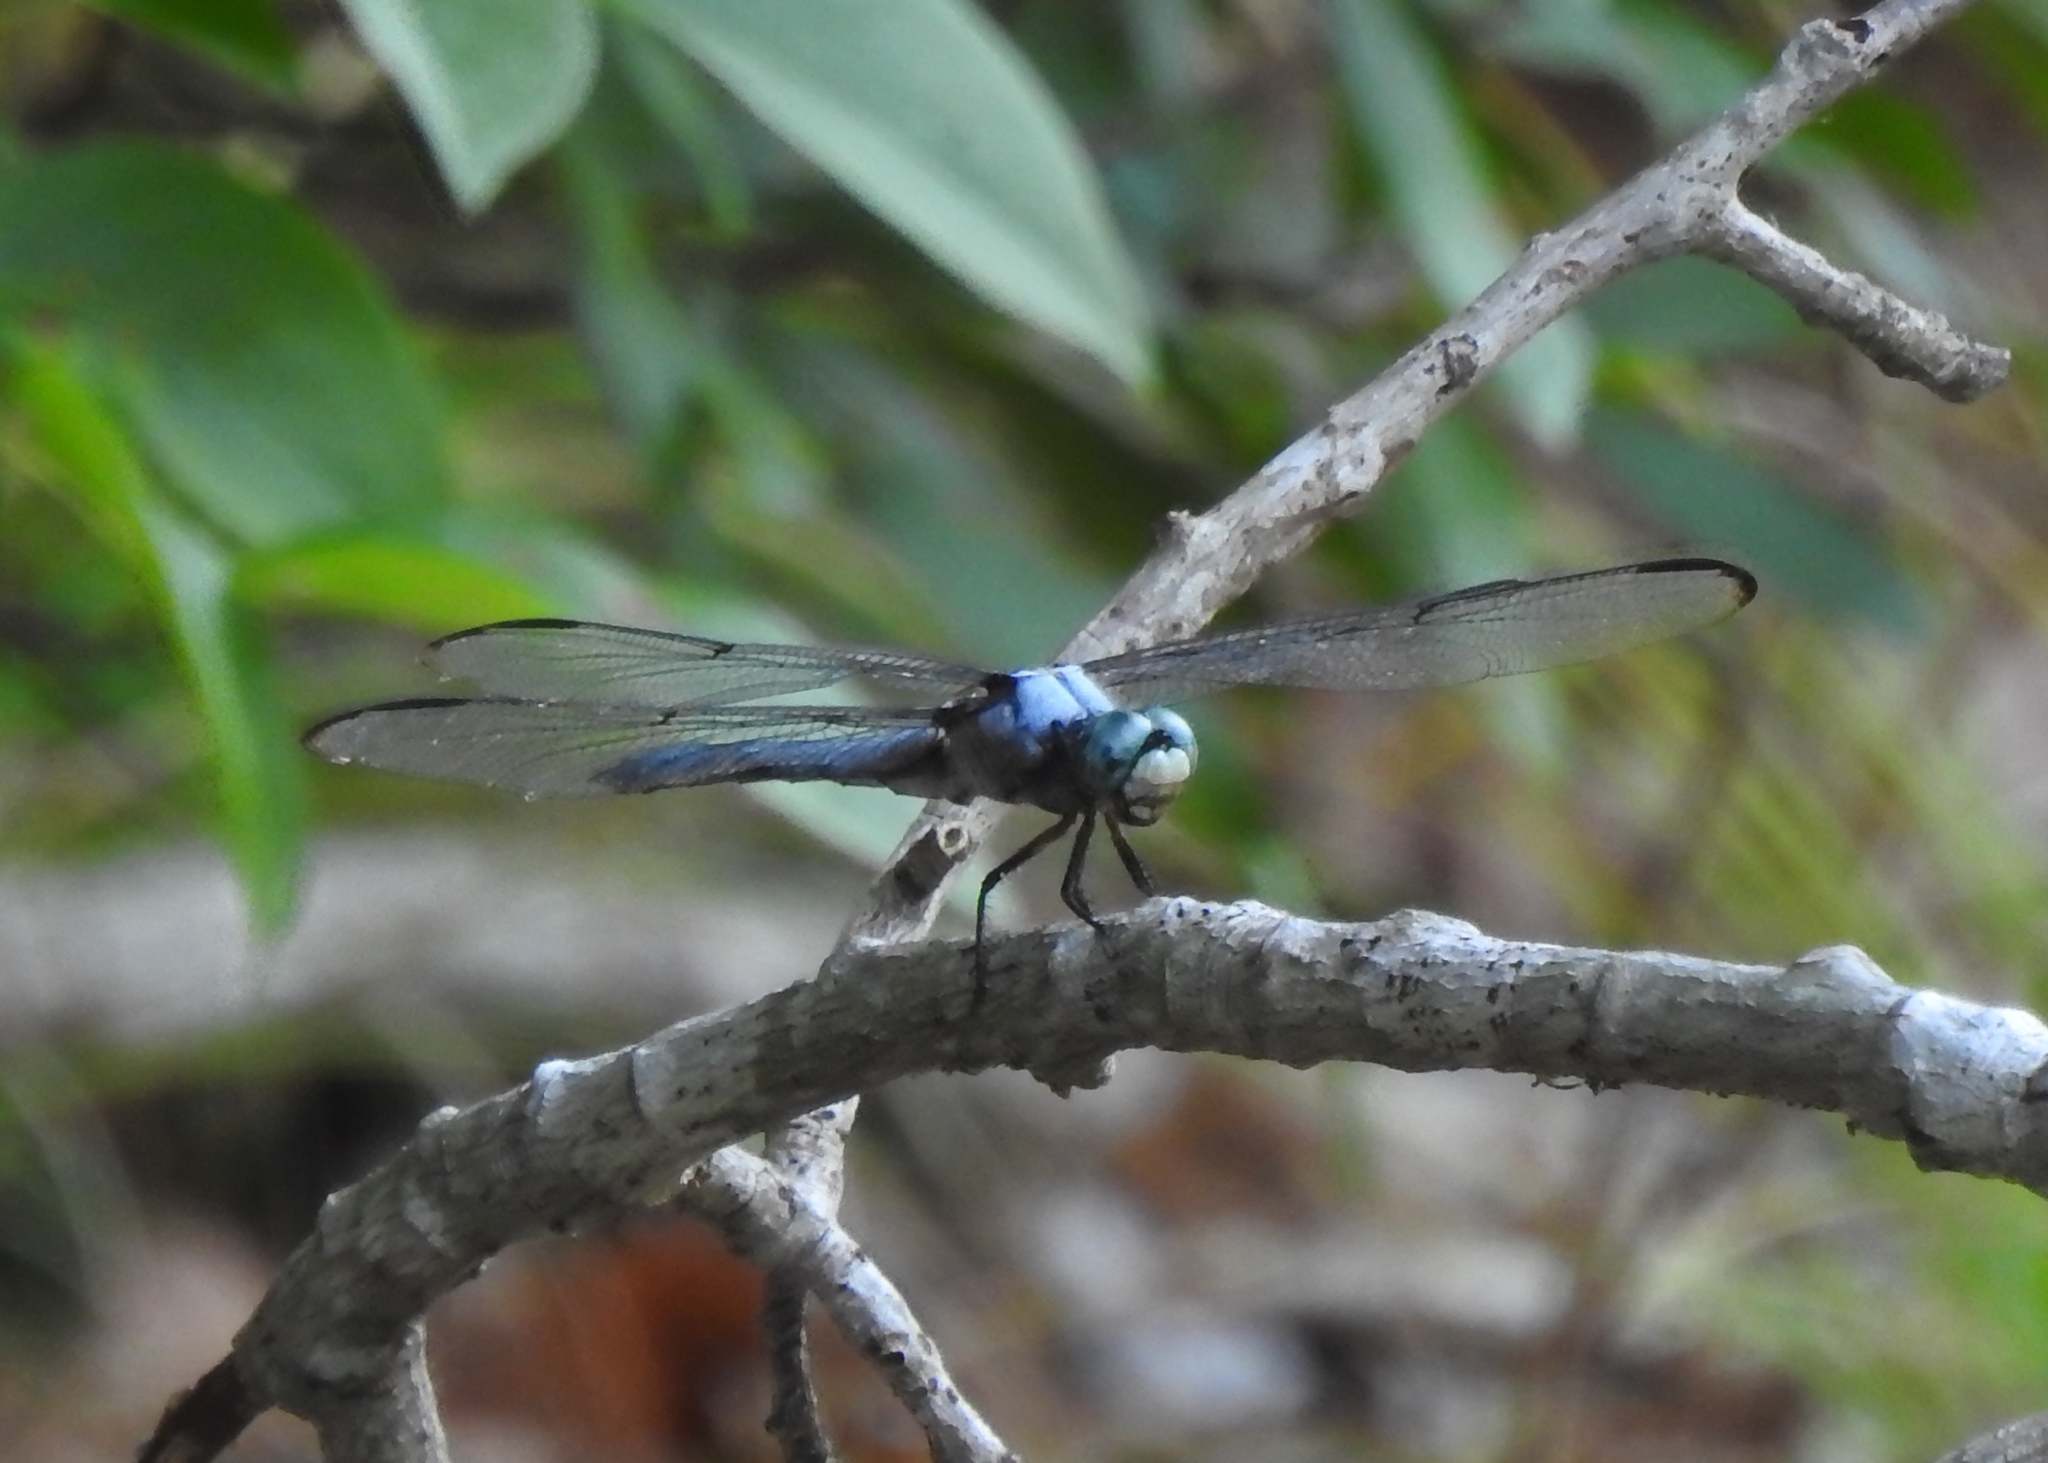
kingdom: Animalia
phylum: Arthropoda
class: Insecta
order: Odonata
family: Libellulidae
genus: Libellula
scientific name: Libellula vibrans
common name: Great blue skimmer
